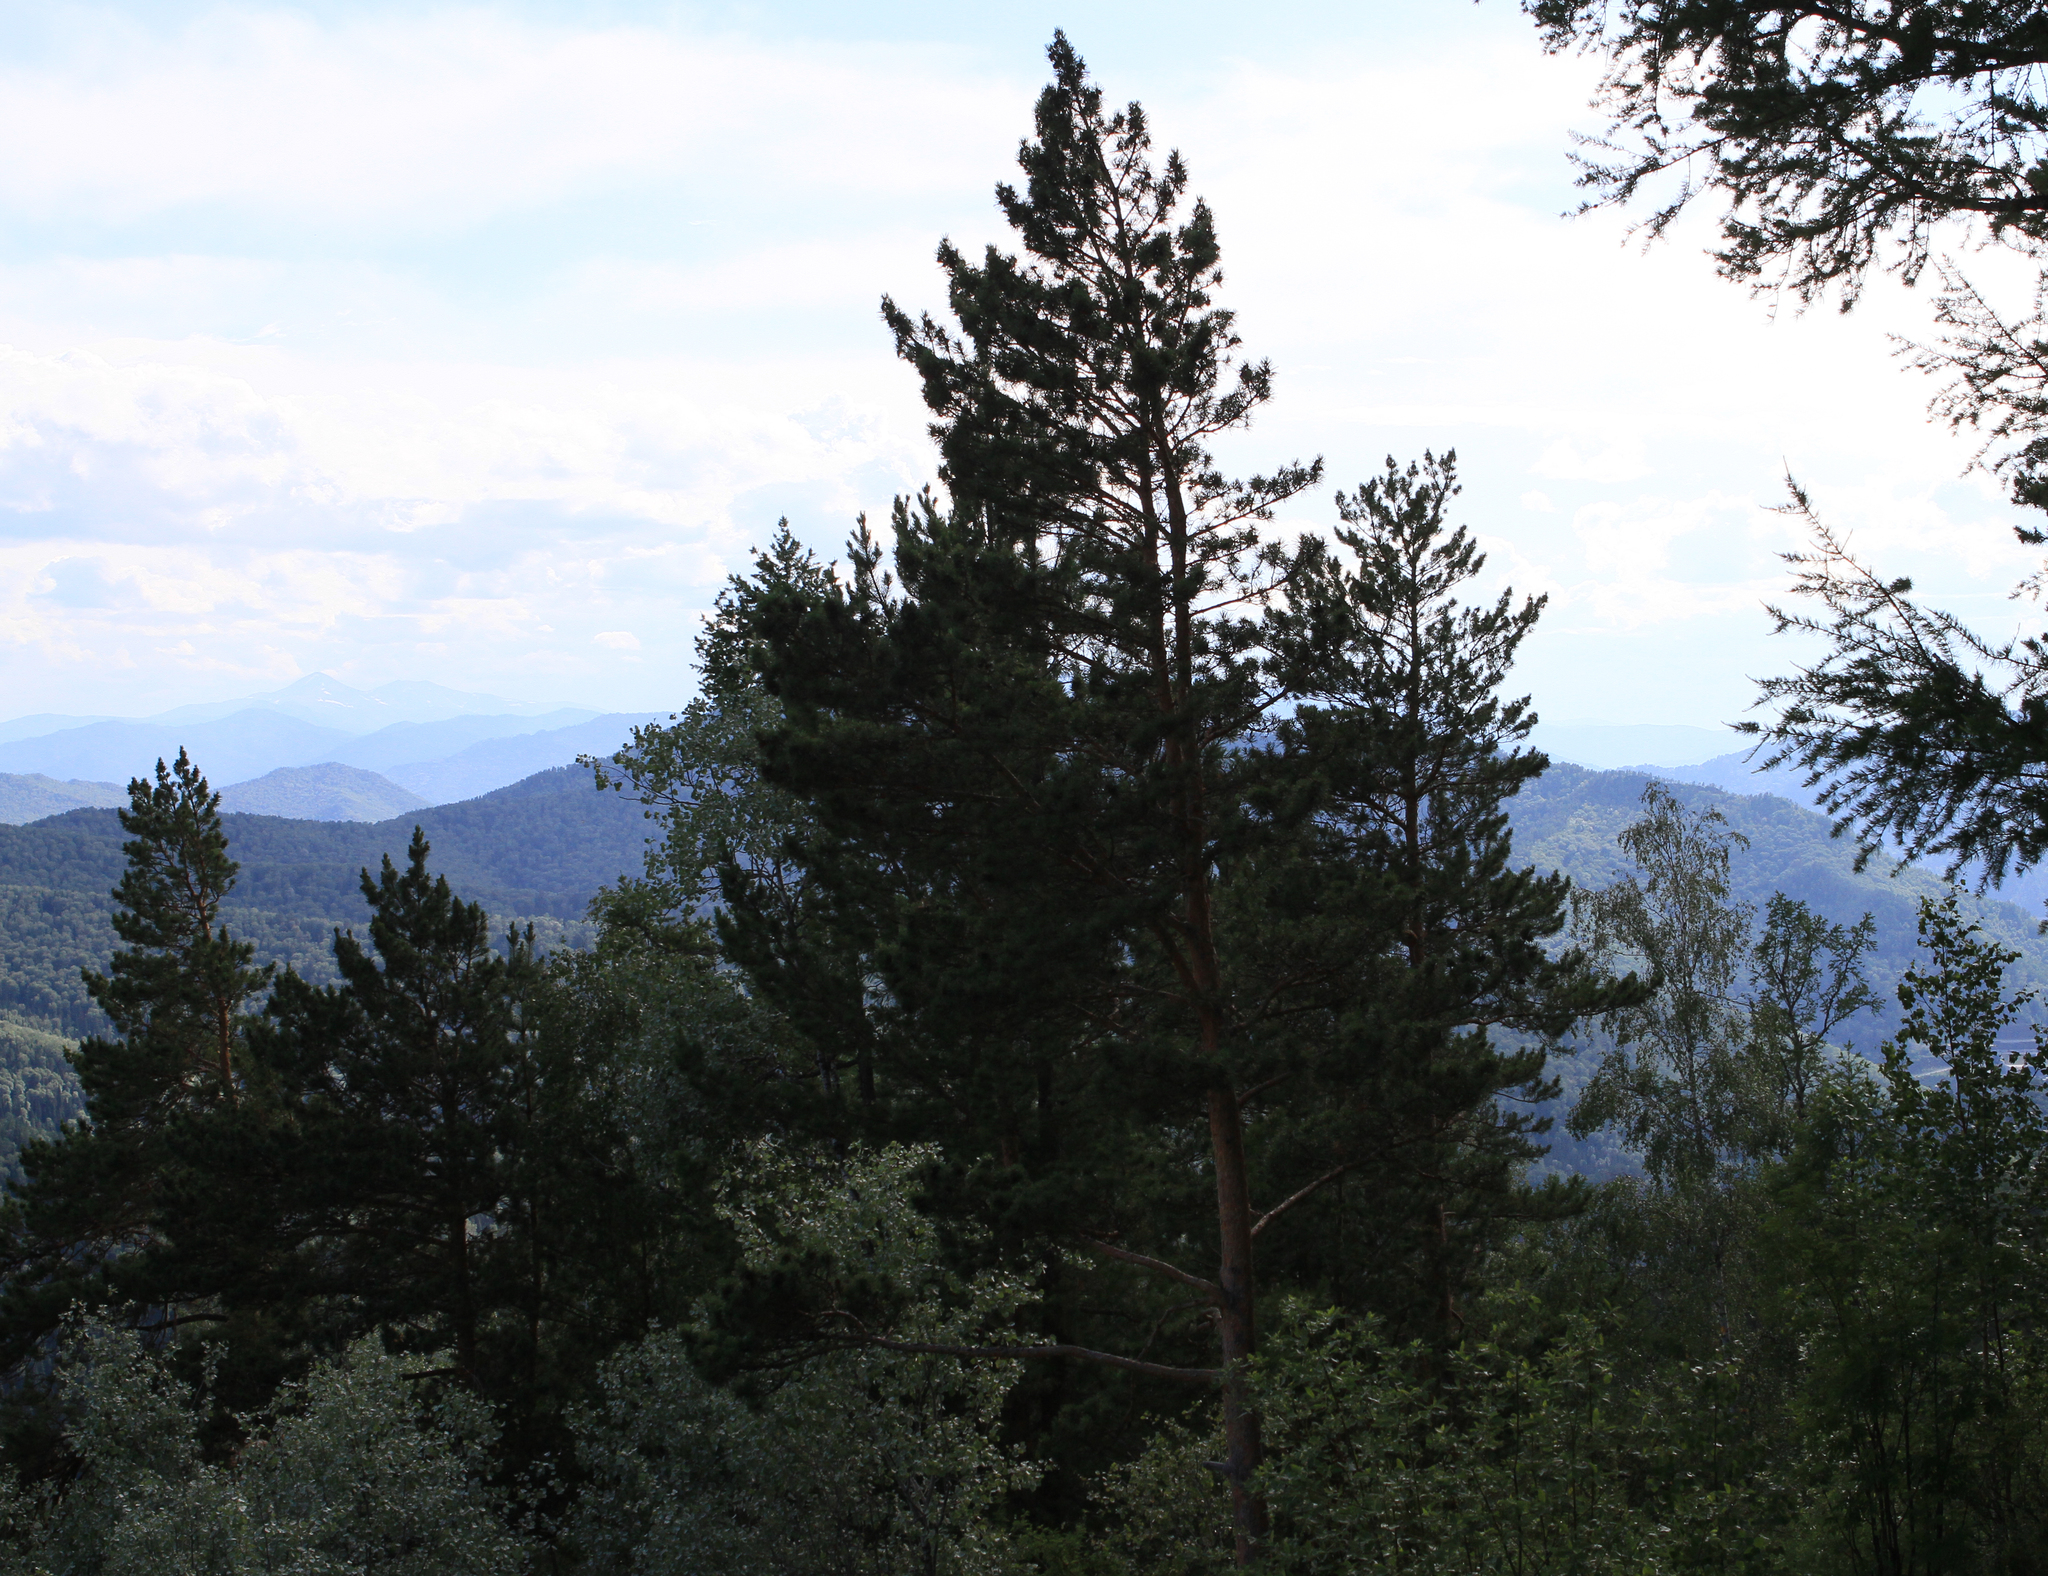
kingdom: Plantae
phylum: Tracheophyta
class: Pinopsida
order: Pinales
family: Pinaceae
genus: Pinus
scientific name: Pinus sylvestris
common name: Scots pine
